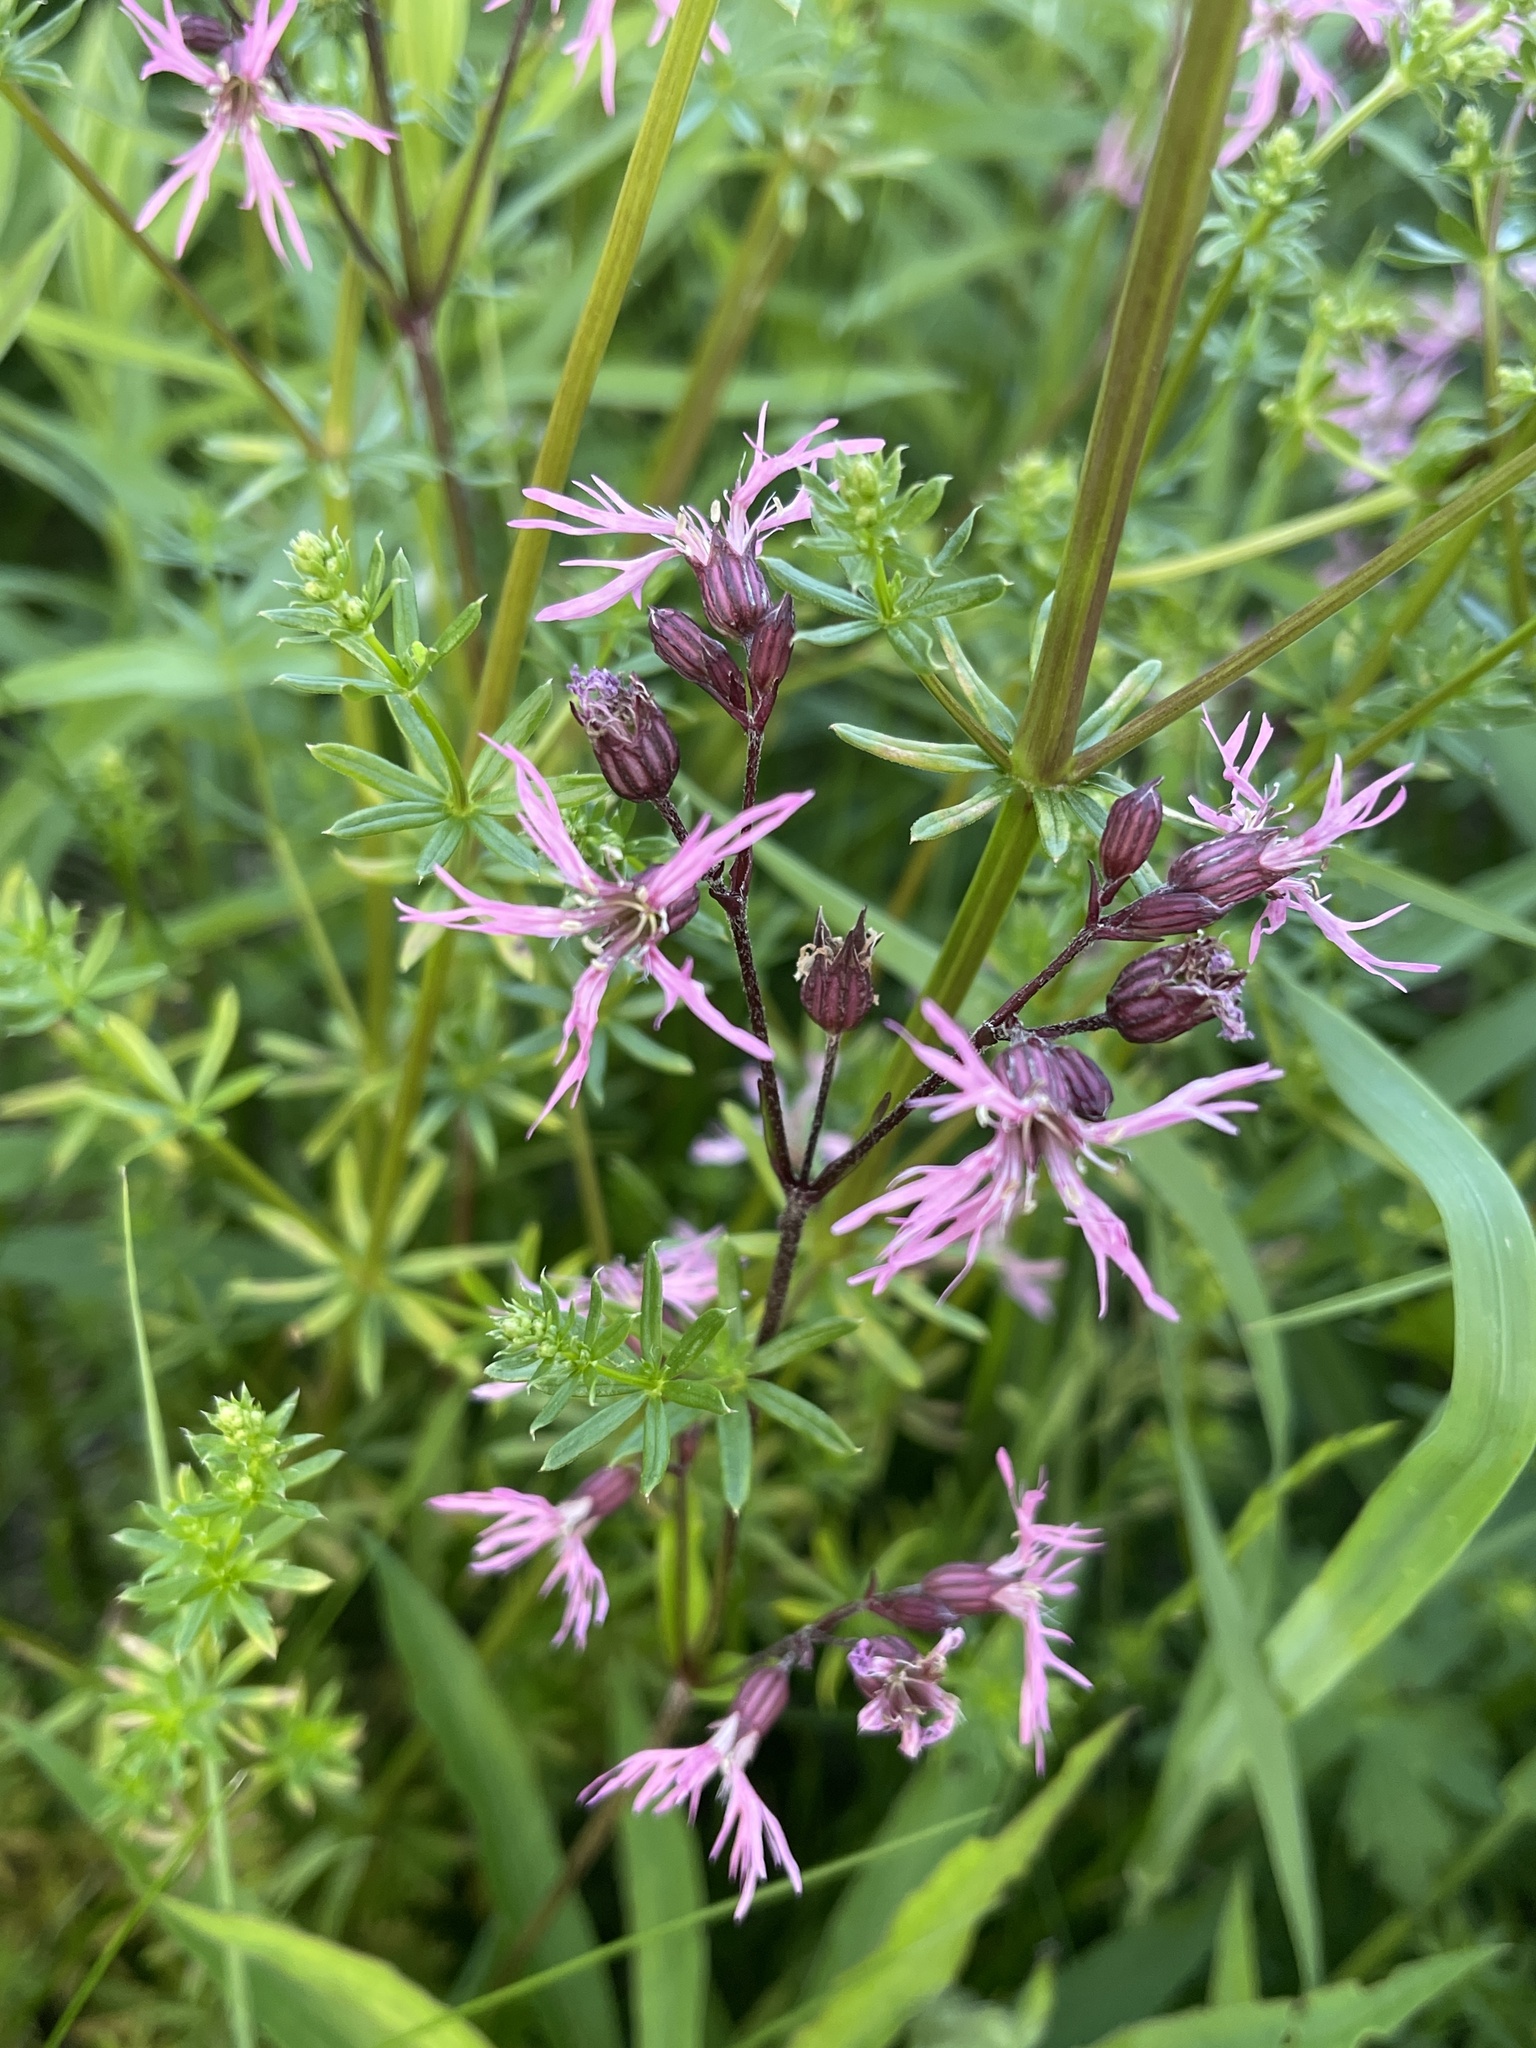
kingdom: Plantae
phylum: Tracheophyta
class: Magnoliopsida
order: Caryophyllales
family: Caryophyllaceae
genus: Silene
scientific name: Silene flos-cuculi
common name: Ragged-robin
